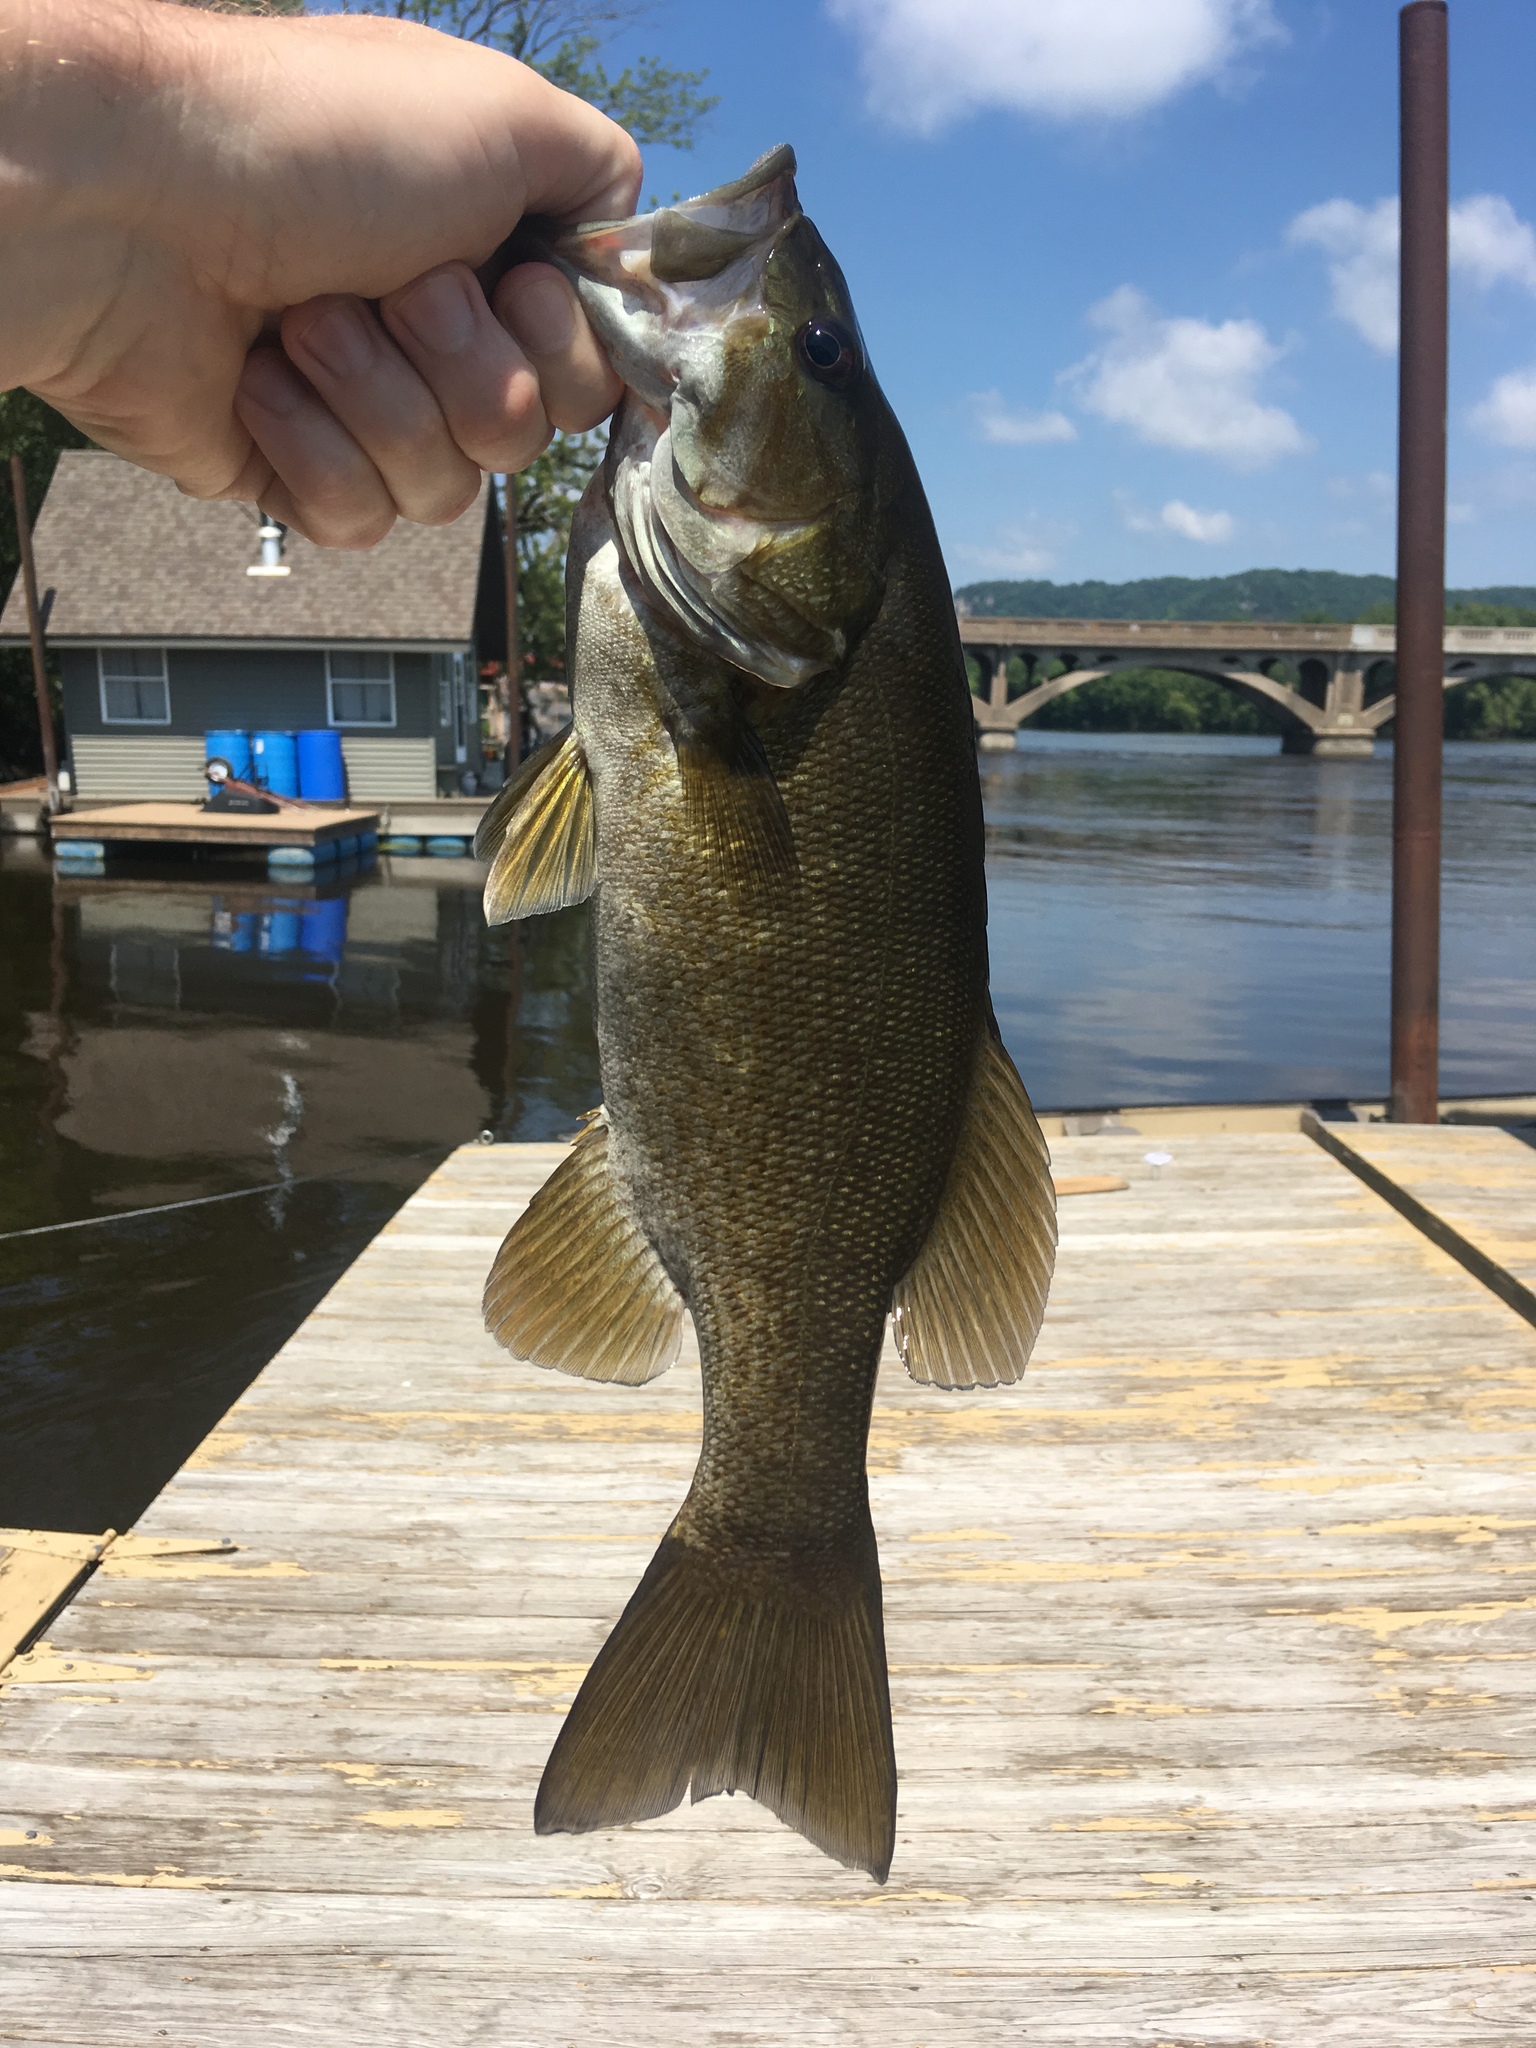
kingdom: Animalia
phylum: Chordata
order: Perciformes
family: Centrarchidae
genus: Micropterus
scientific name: Micropterus dolomieu
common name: Smallmouth bass
